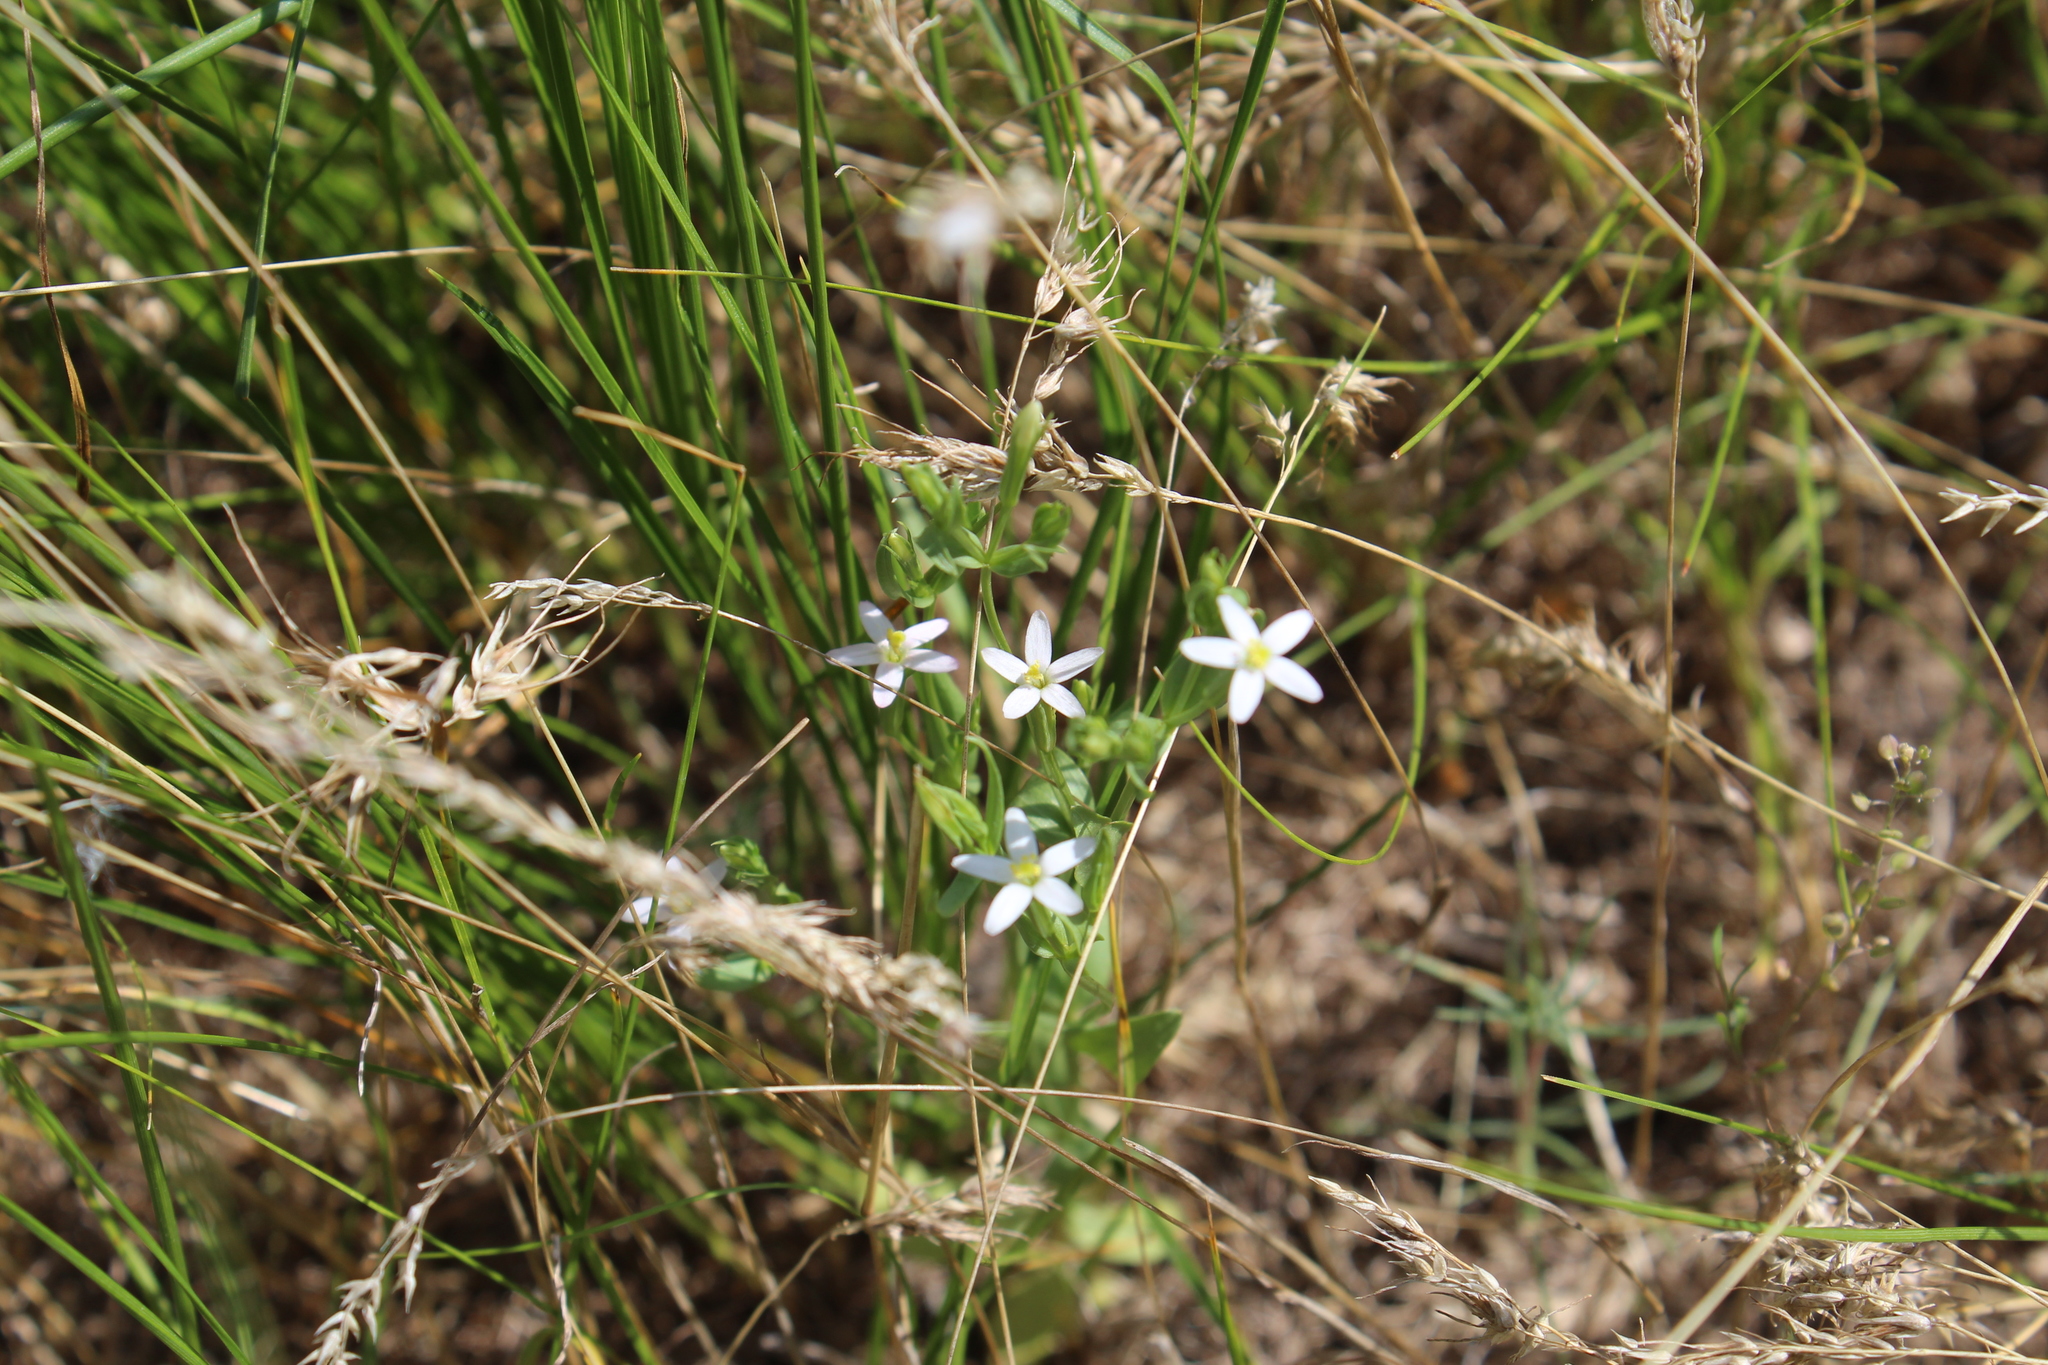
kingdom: Plantae
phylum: Tracheophyta
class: Magnoliopsida
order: Gentianales
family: Gentianaceae
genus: Centaurium
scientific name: Centaurium pulchellum
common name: Lesser centaury
